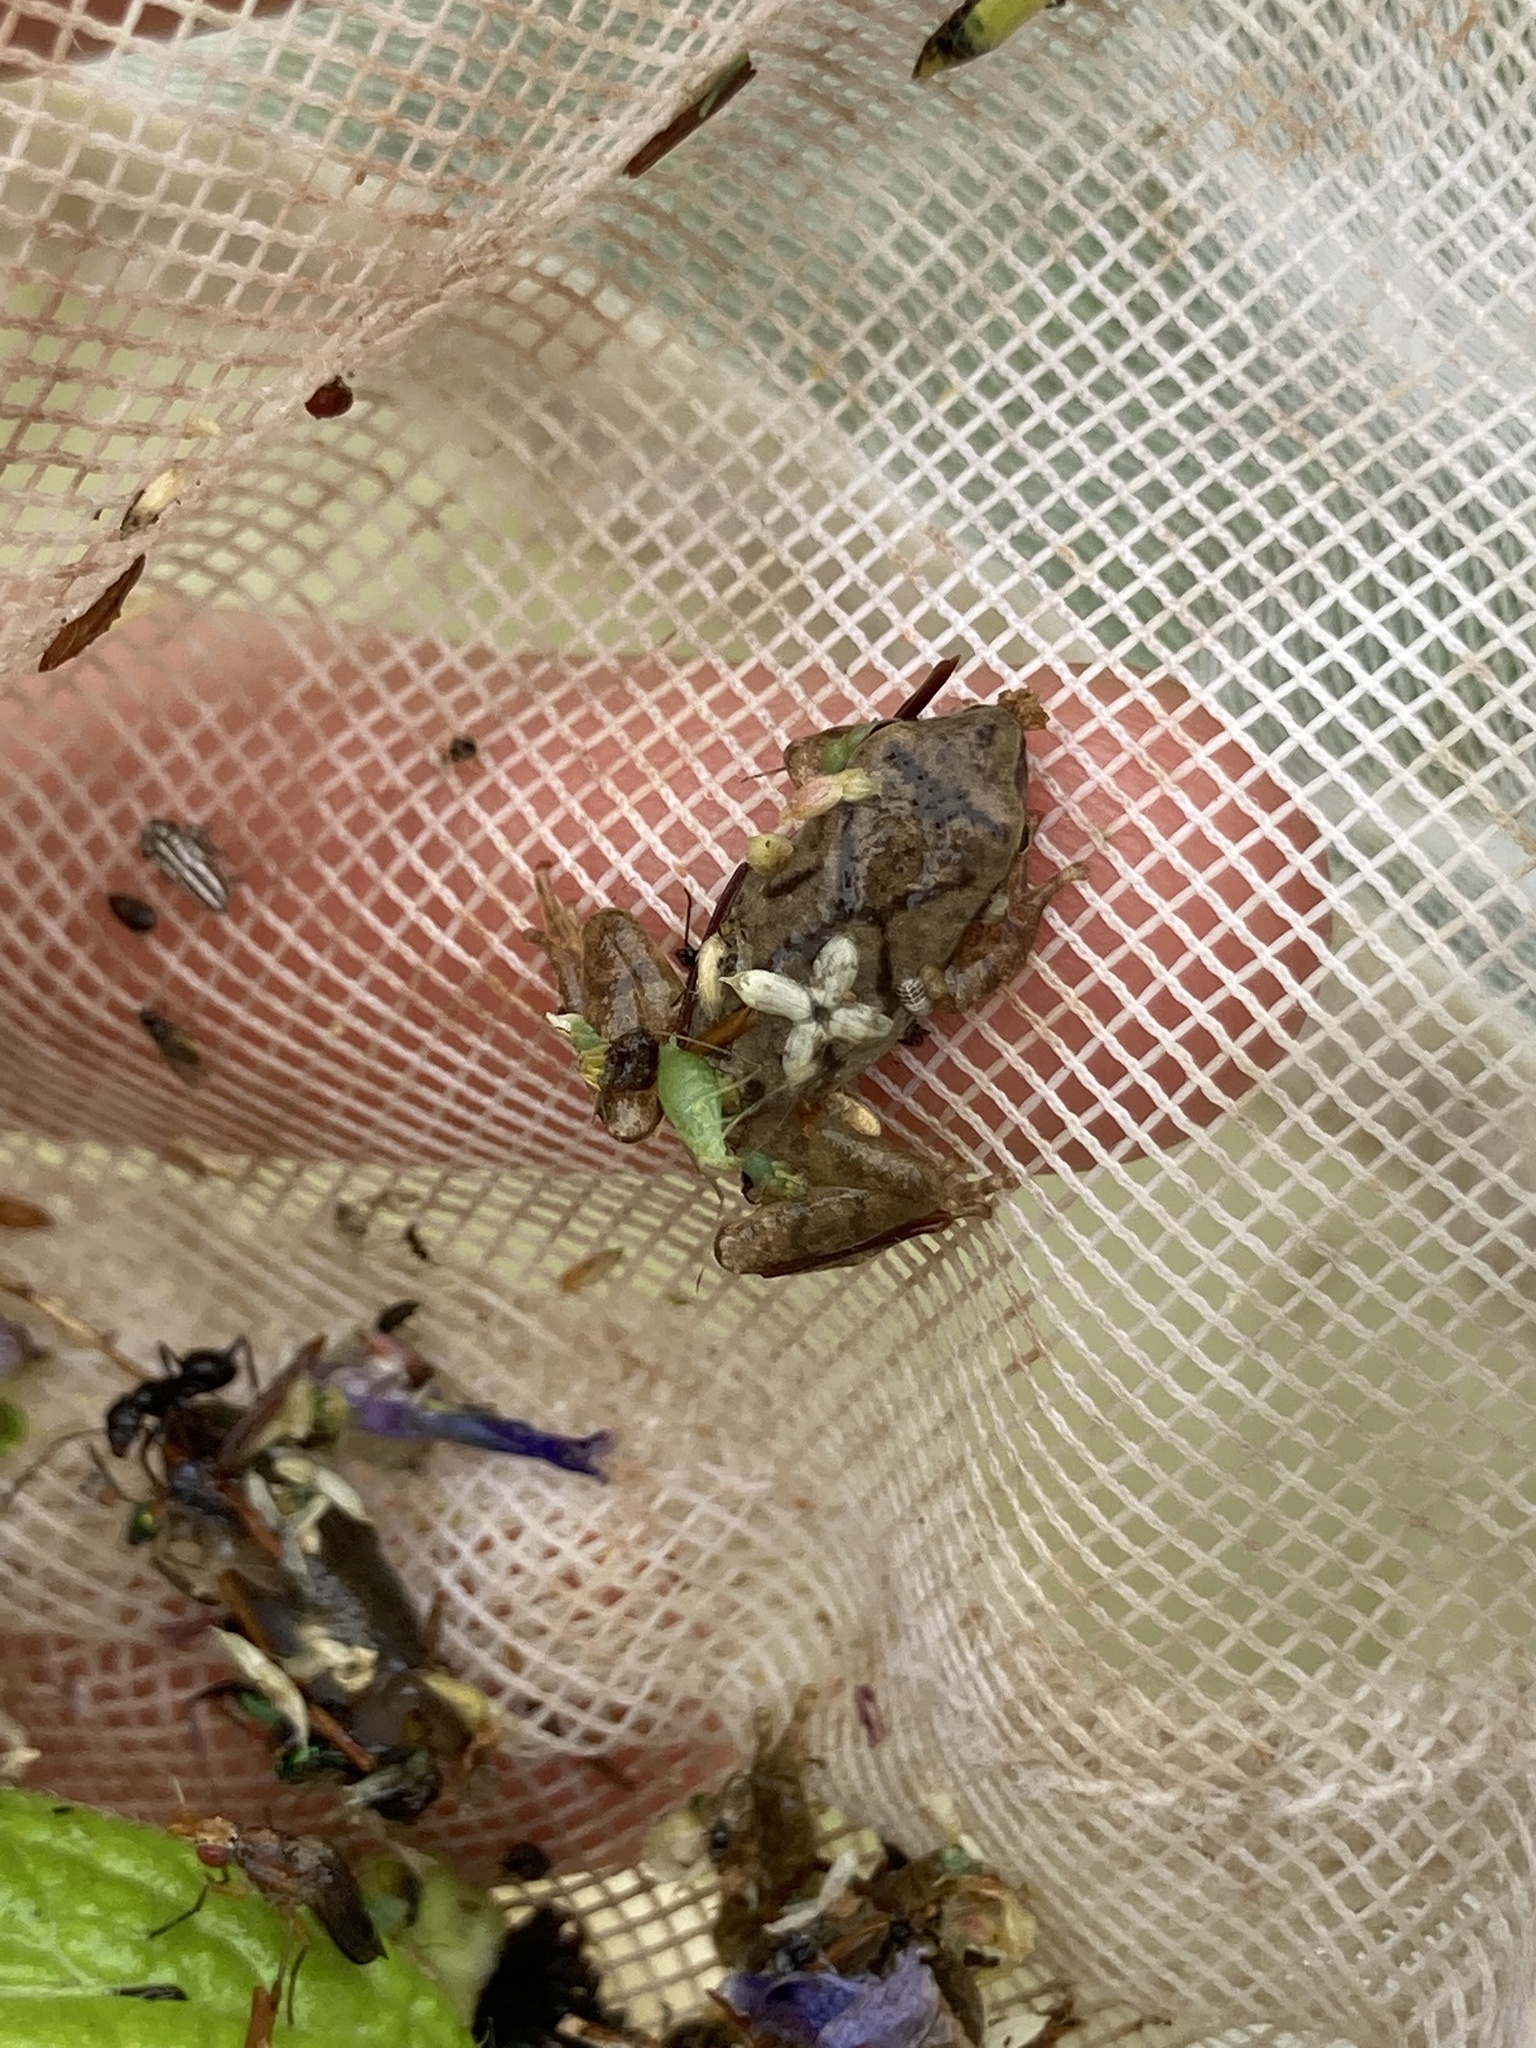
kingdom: Animalia
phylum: Chordata
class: Amphibia
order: Anura
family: Hylidae
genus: Pseudacris
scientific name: Pseudacris crucifer
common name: Spring peeper
